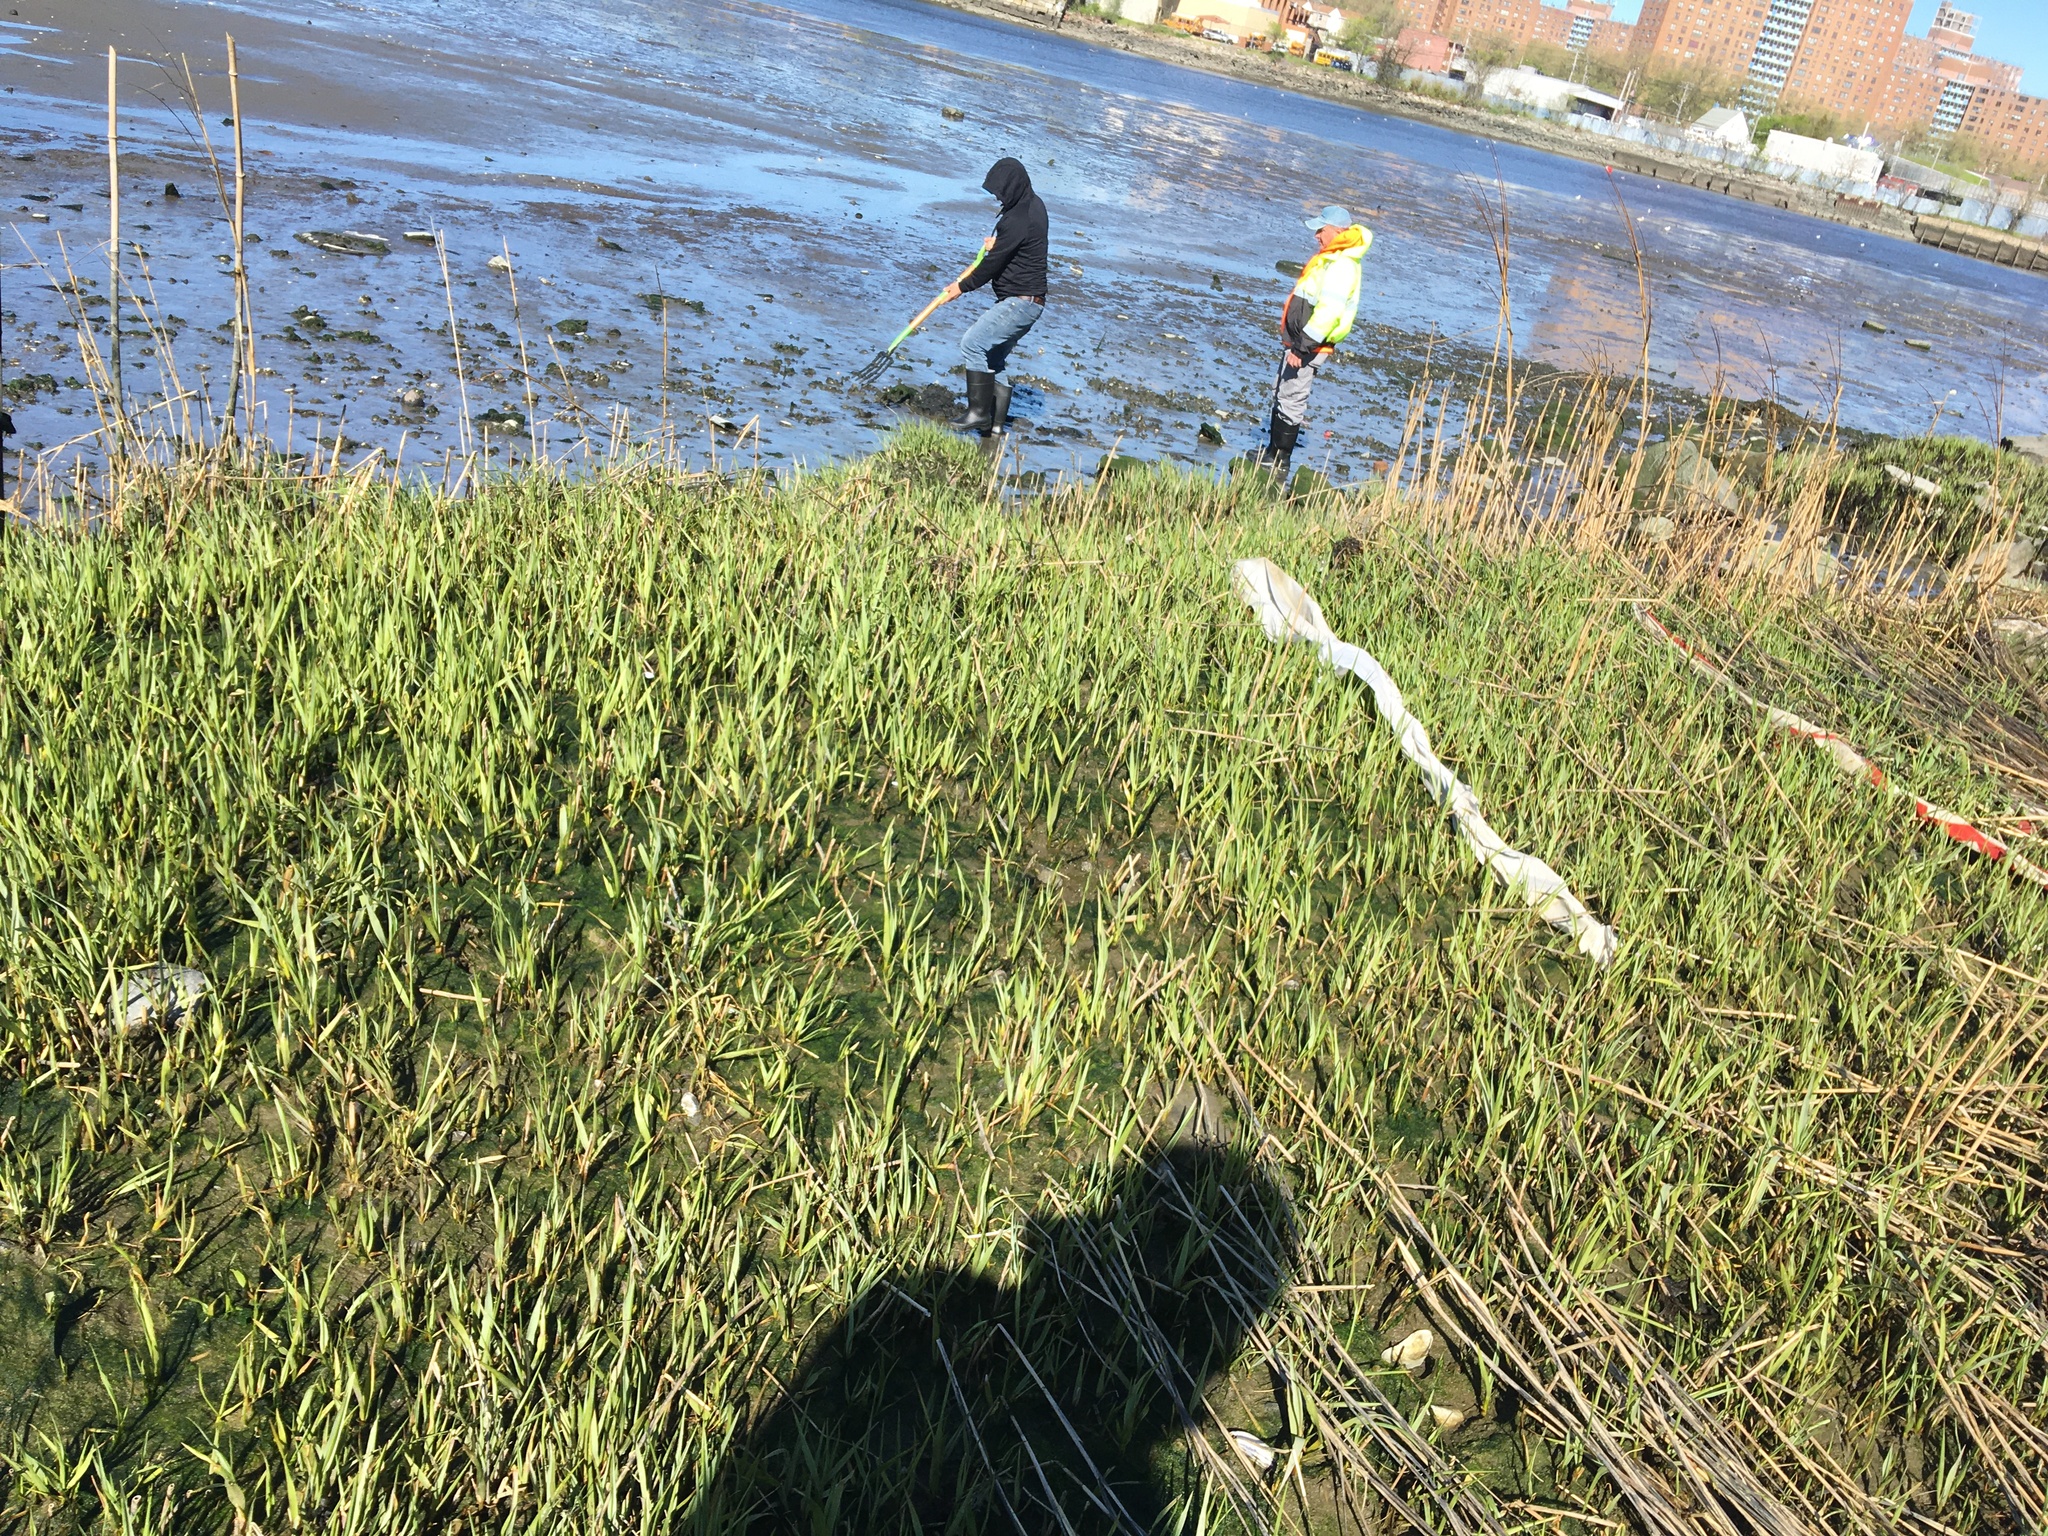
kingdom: Plantae
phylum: Tracheophyta
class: Liliopsida
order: Poales
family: Poaceae
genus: Sporobolus
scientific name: Sporobolus alterniflorus
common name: Atlantic cordgrass
